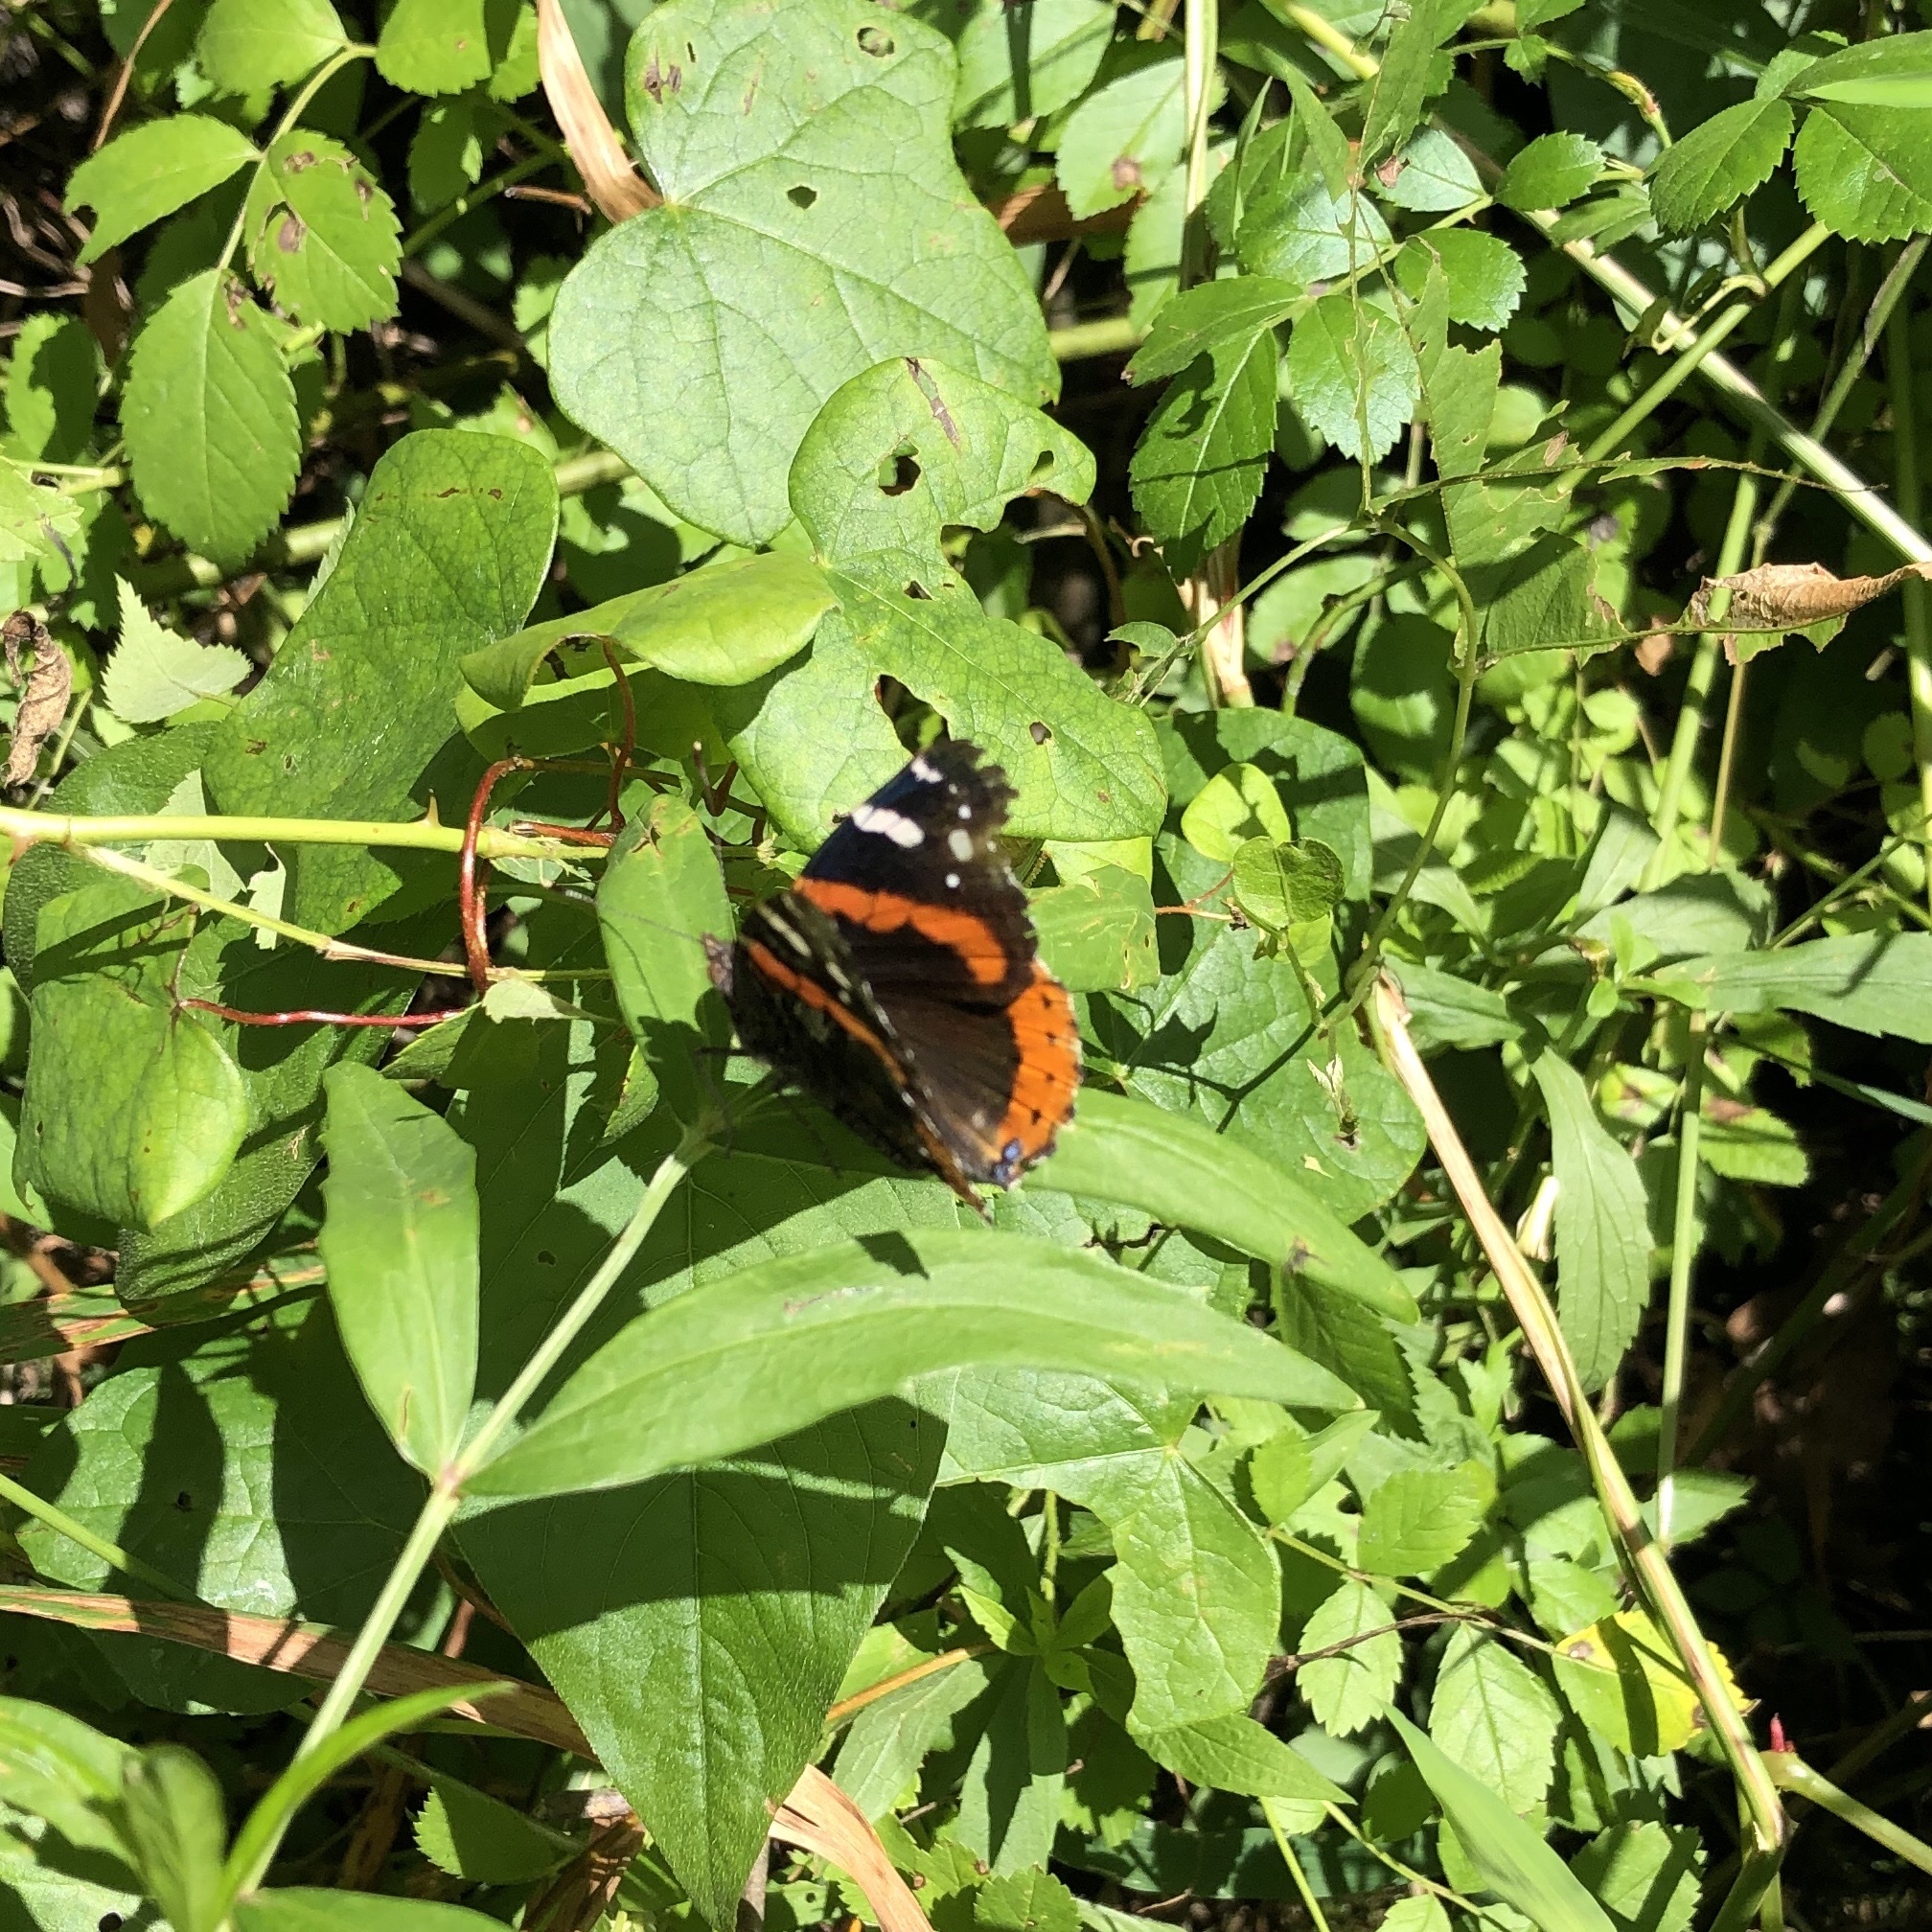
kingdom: Animalia
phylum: Arthropoda
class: Insecta
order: Lepidoptera
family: Nymphalidae
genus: Vanessa
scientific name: Vanessa atalanta
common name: Red admiral
